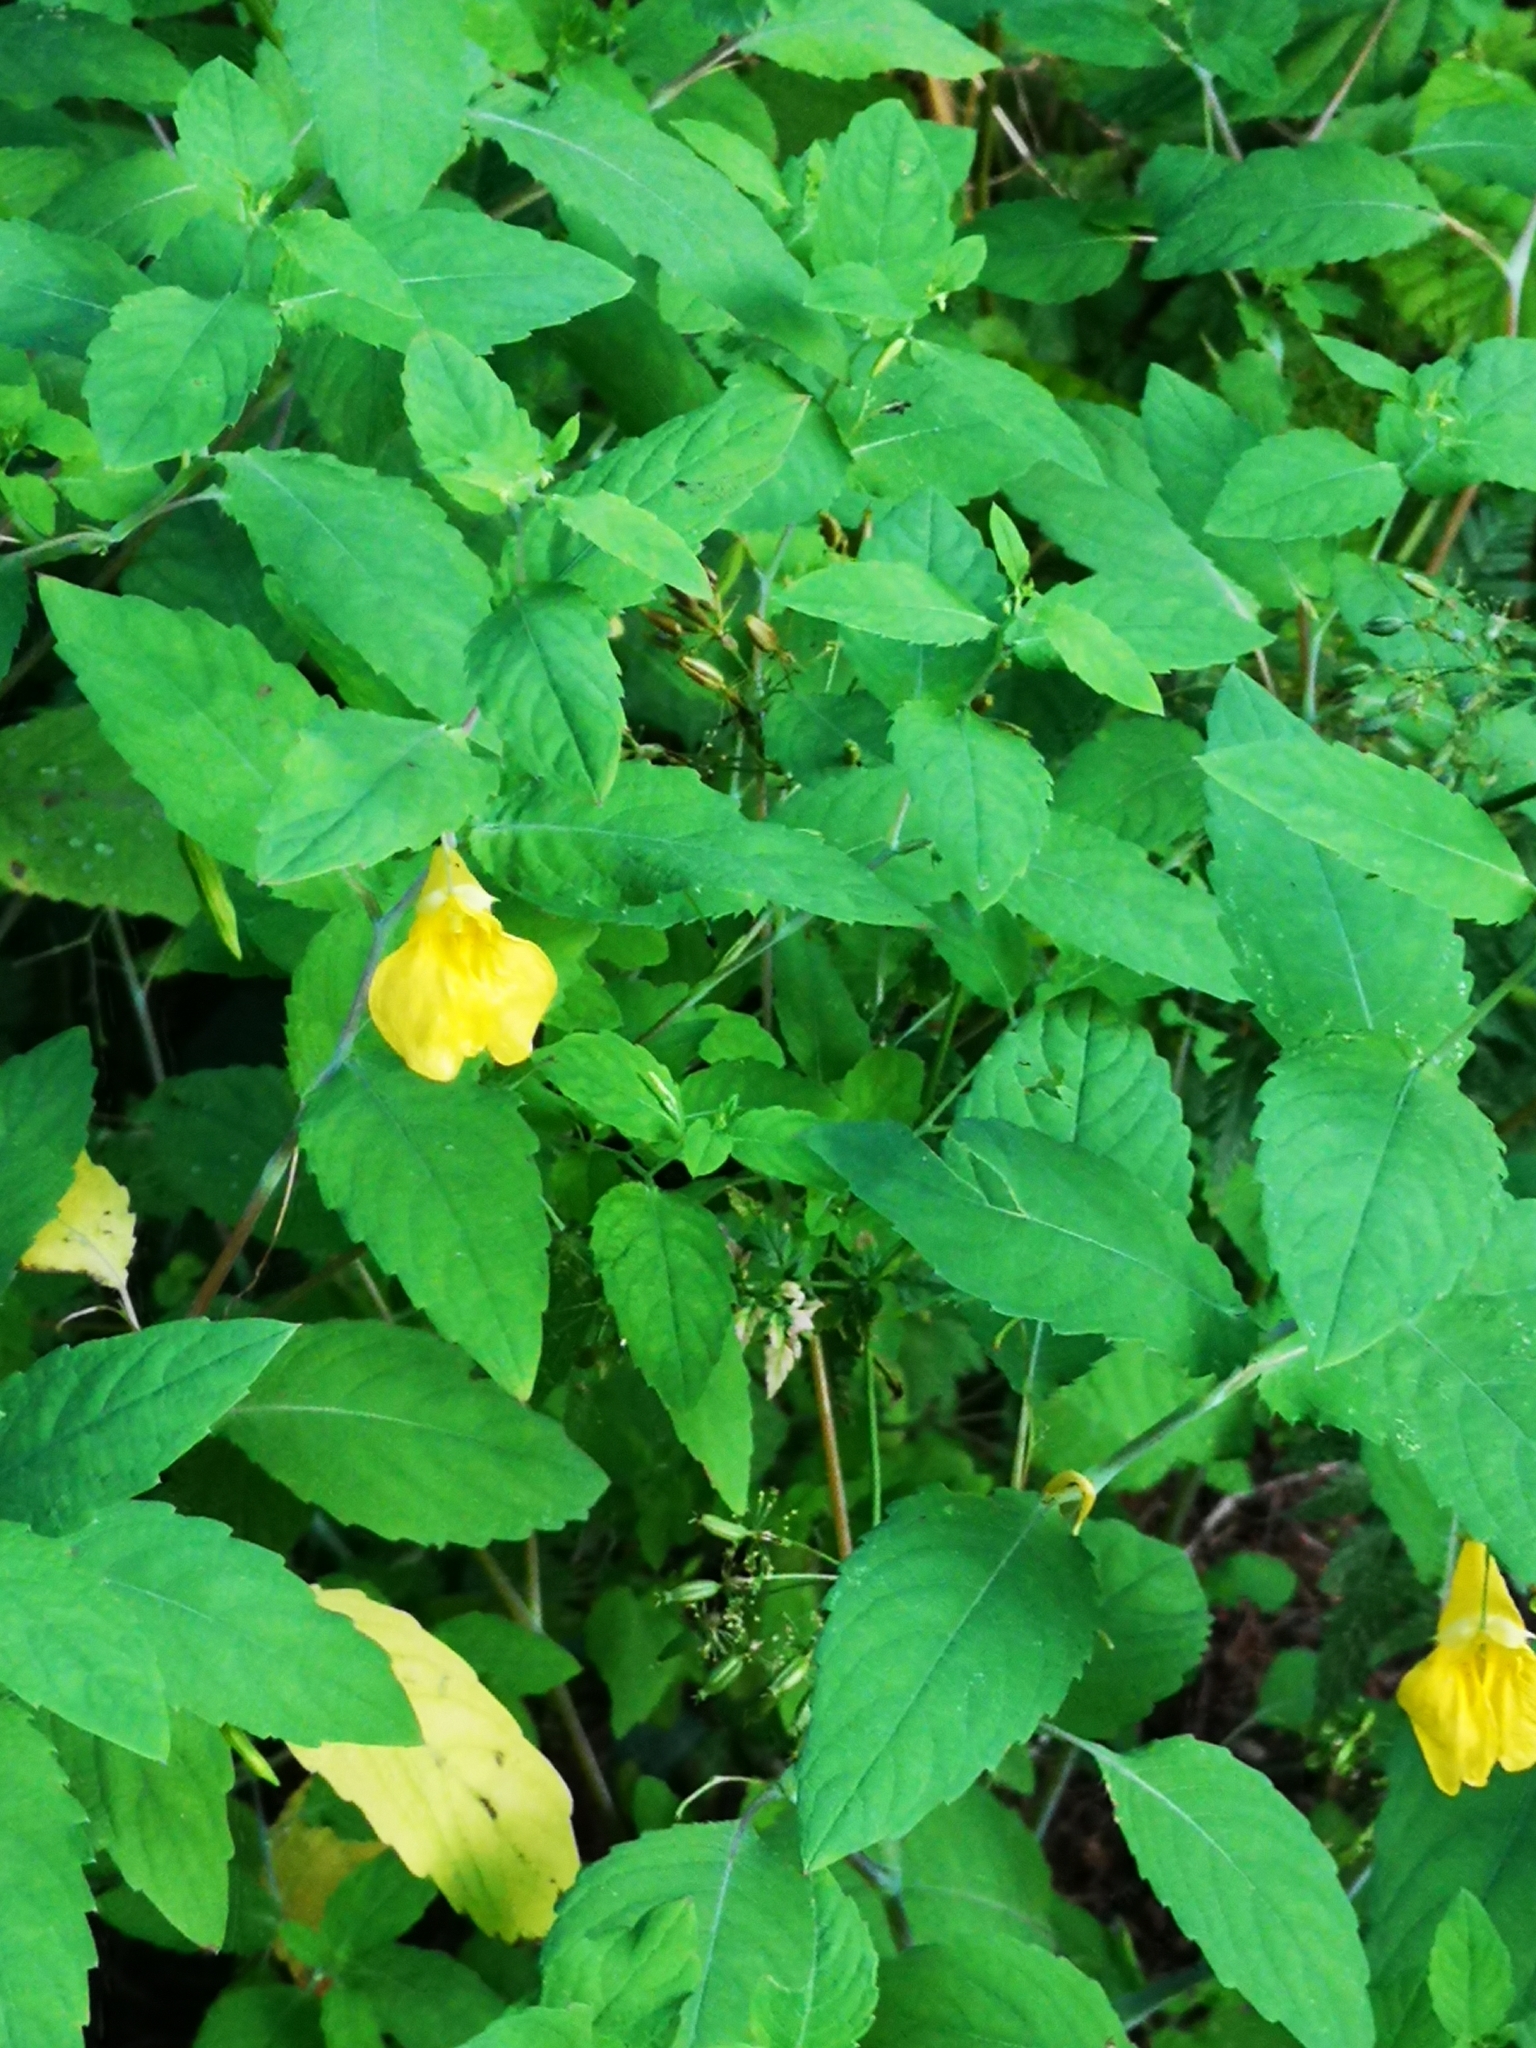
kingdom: Plantae
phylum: Tracheophyta
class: Magnoliopsida
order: Ericales
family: Balsaminaceae
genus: Impatiens
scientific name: Impatiens noli-tangere
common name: Touch-me-not balsam
